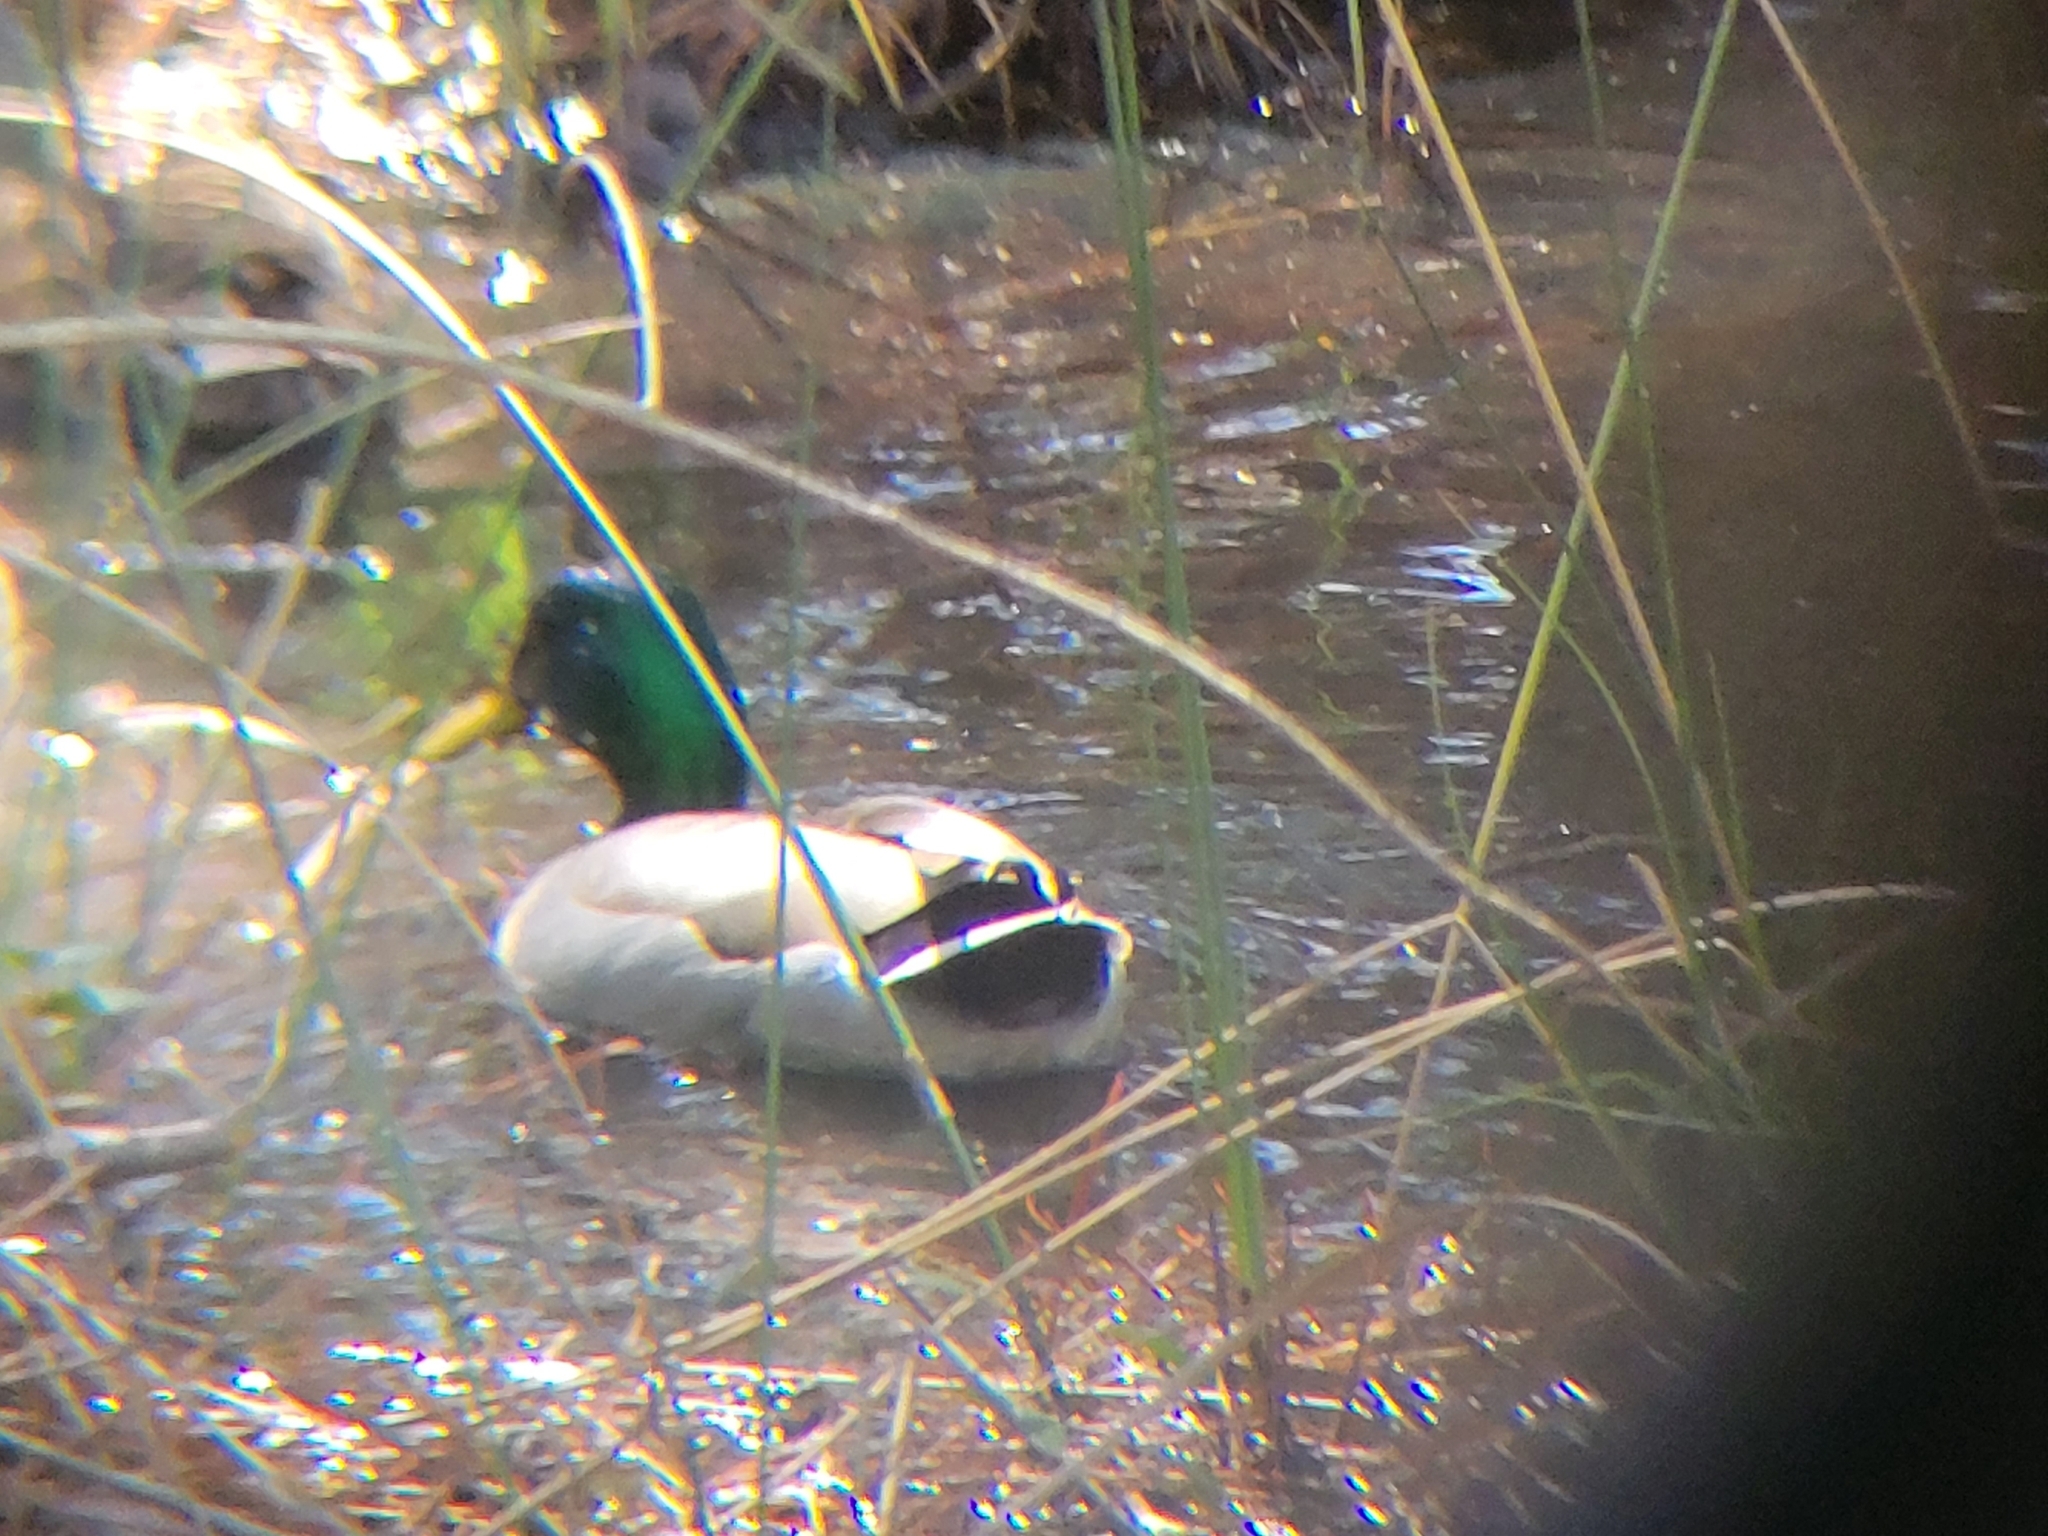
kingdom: Animalia
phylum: Chordata
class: Aves
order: Anseriformes
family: Anatidae
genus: Anas
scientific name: Anas platyrhynchos
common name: Mallard
